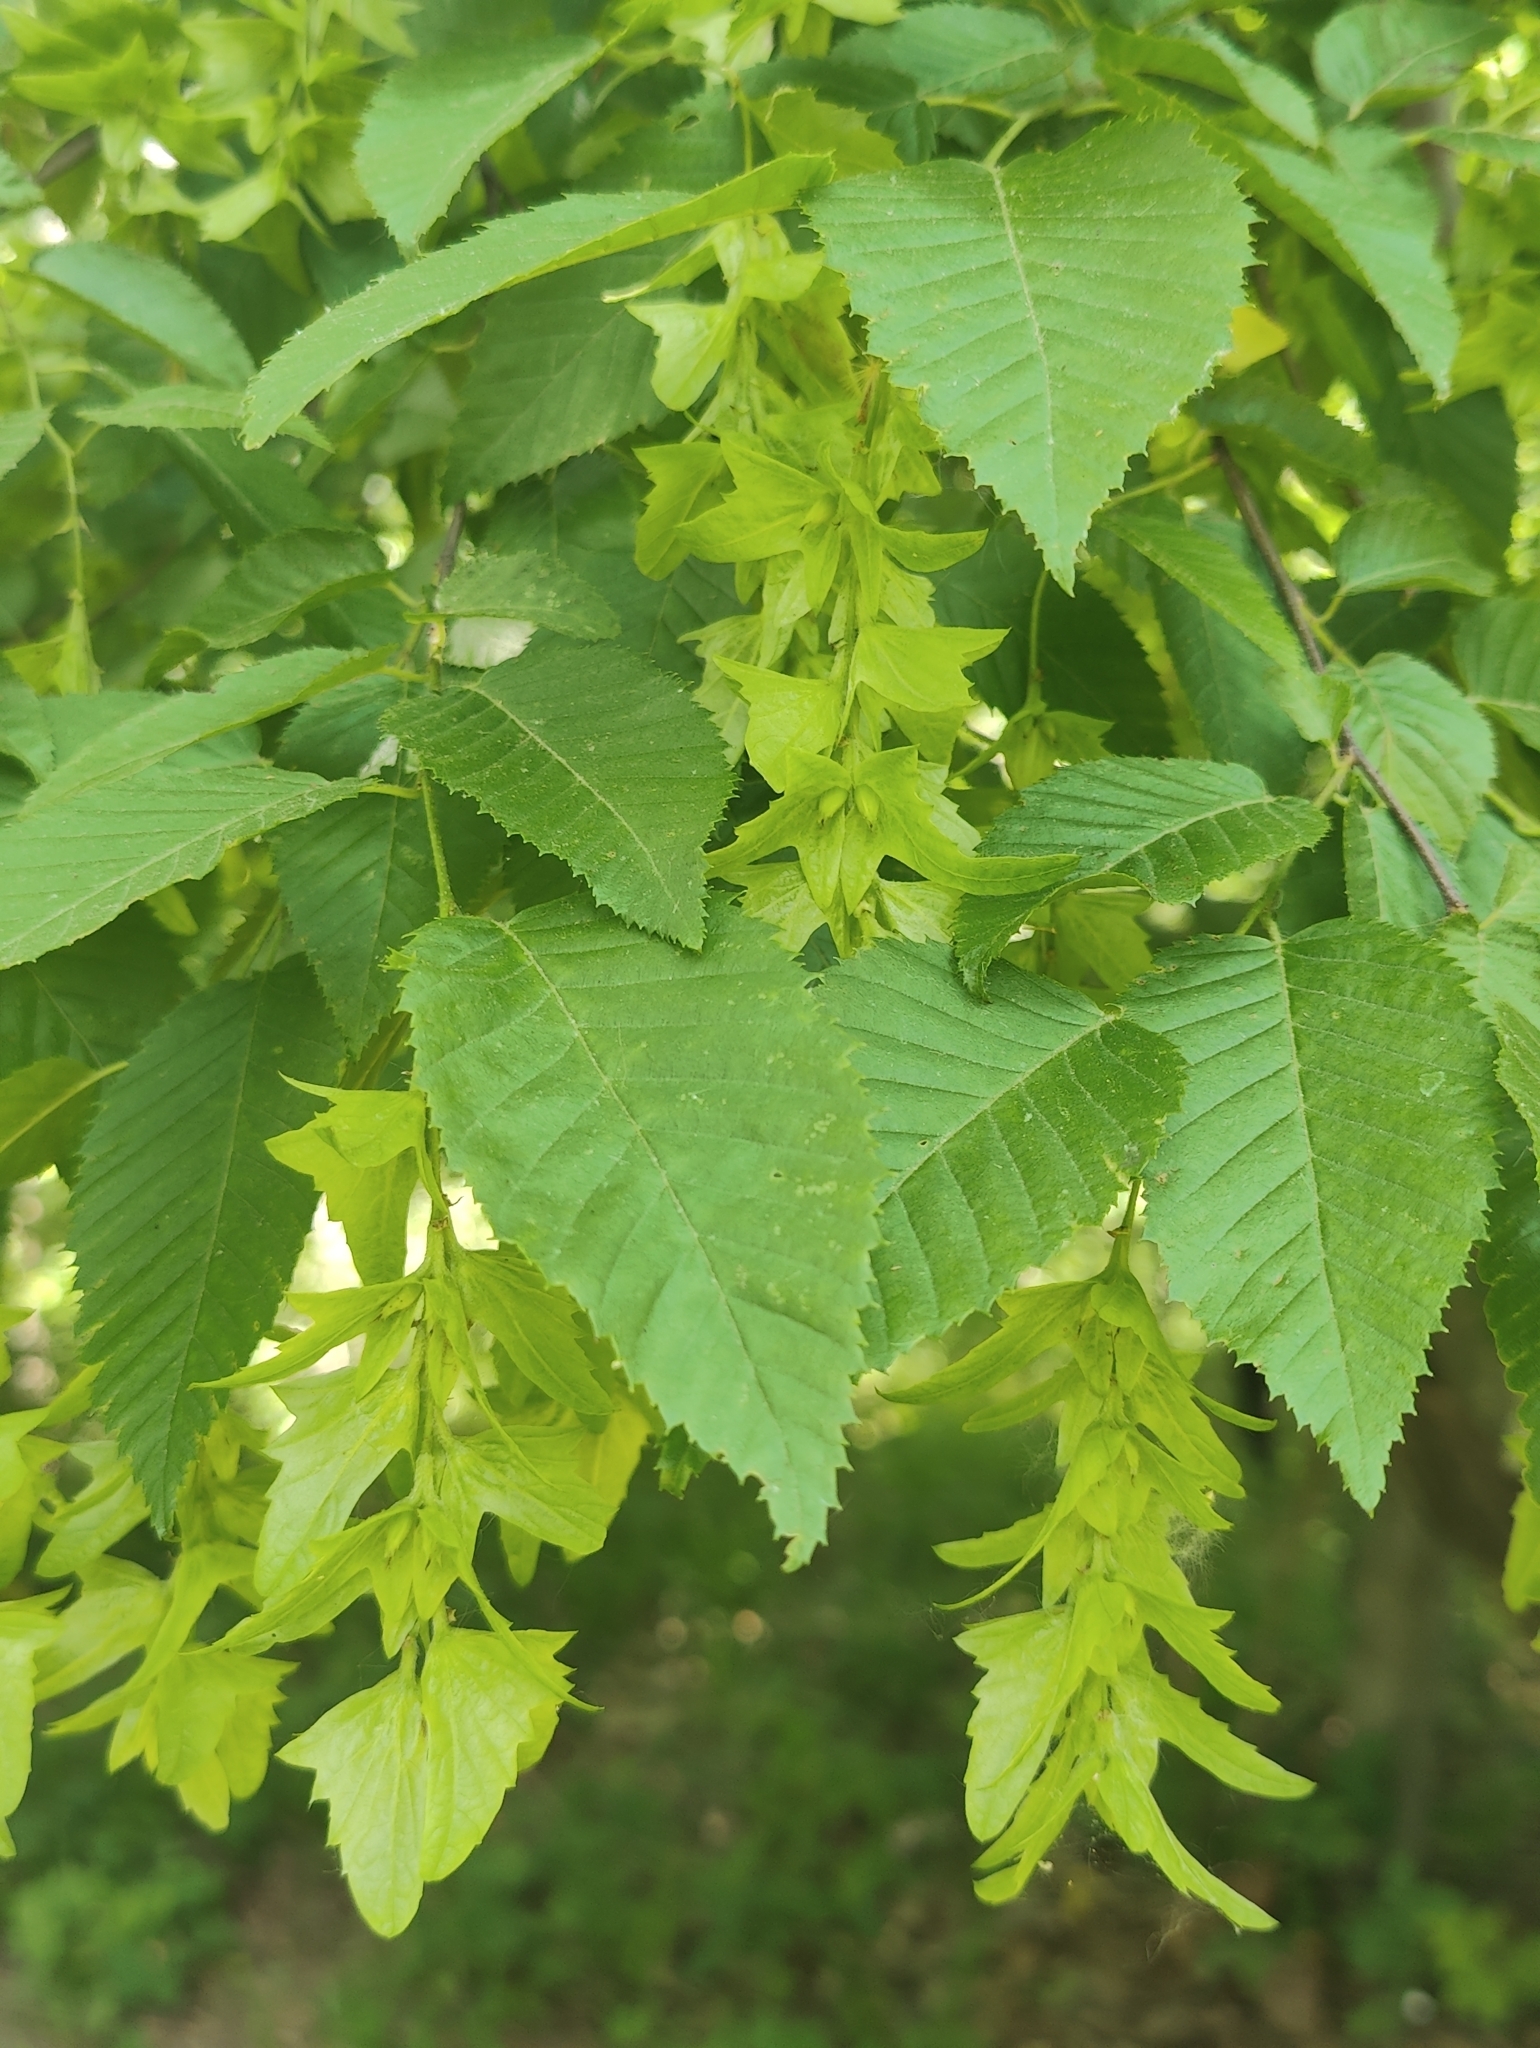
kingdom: Plantae
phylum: Tracheophyta
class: Magnoliopsida
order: Fagales
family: Betulaceae
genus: Carpinus
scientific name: Carpinus caroliniana
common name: American hornbeam
